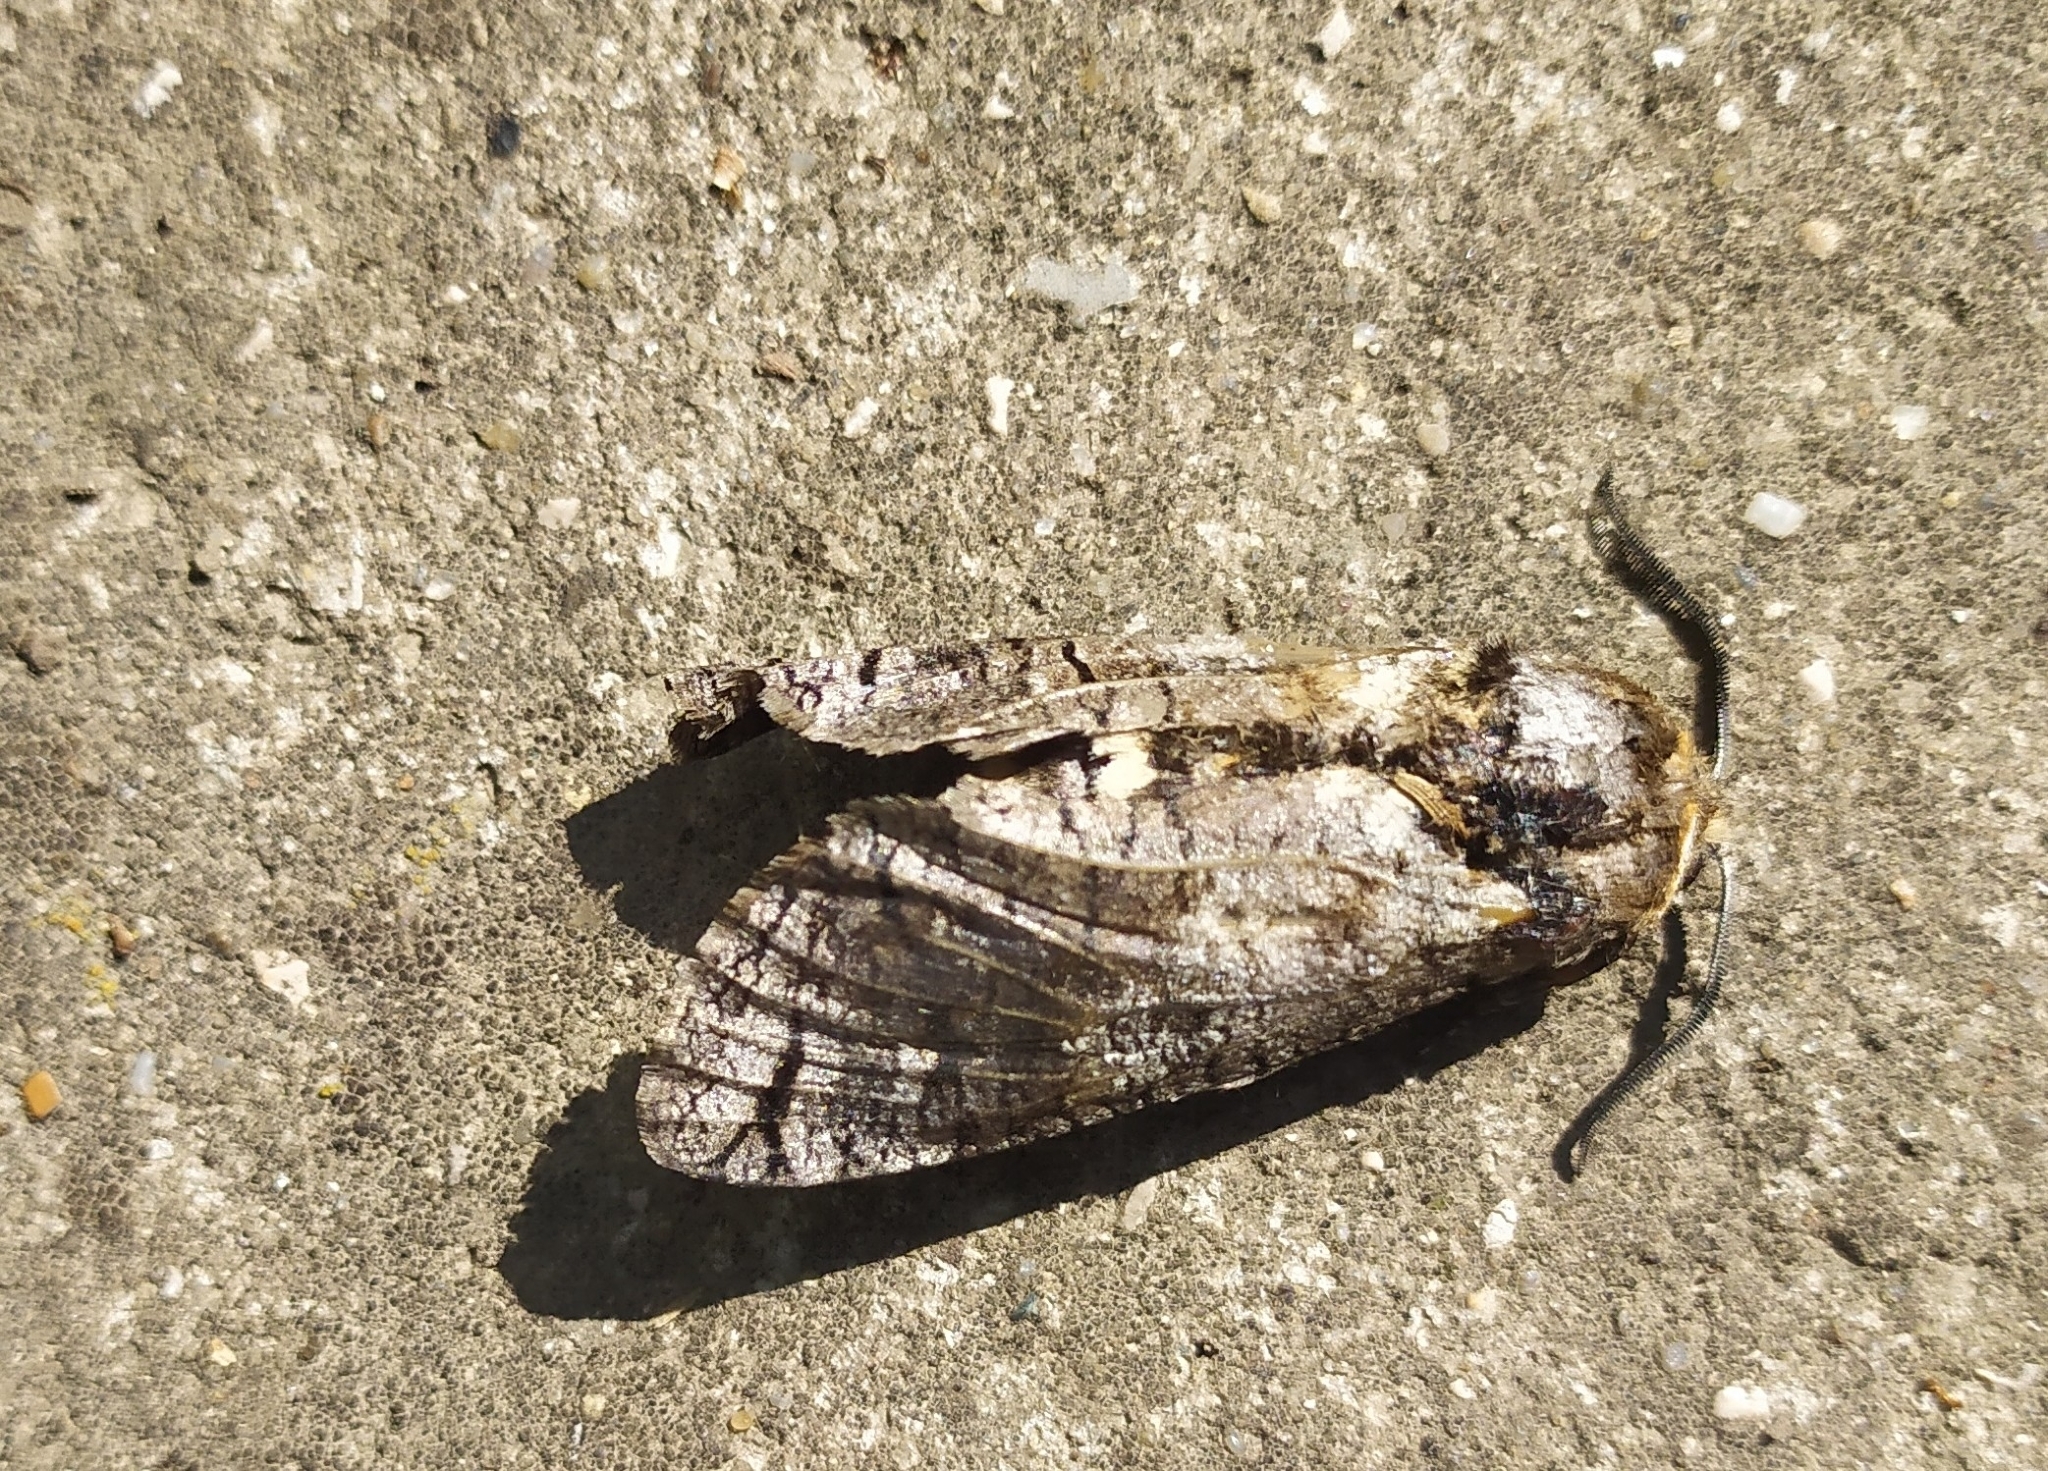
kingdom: Animalia
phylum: Arthropoda
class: Insecta
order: Lepidoptera
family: Cossidae
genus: Cossus
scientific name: Cossus cossus
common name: Goat moth
